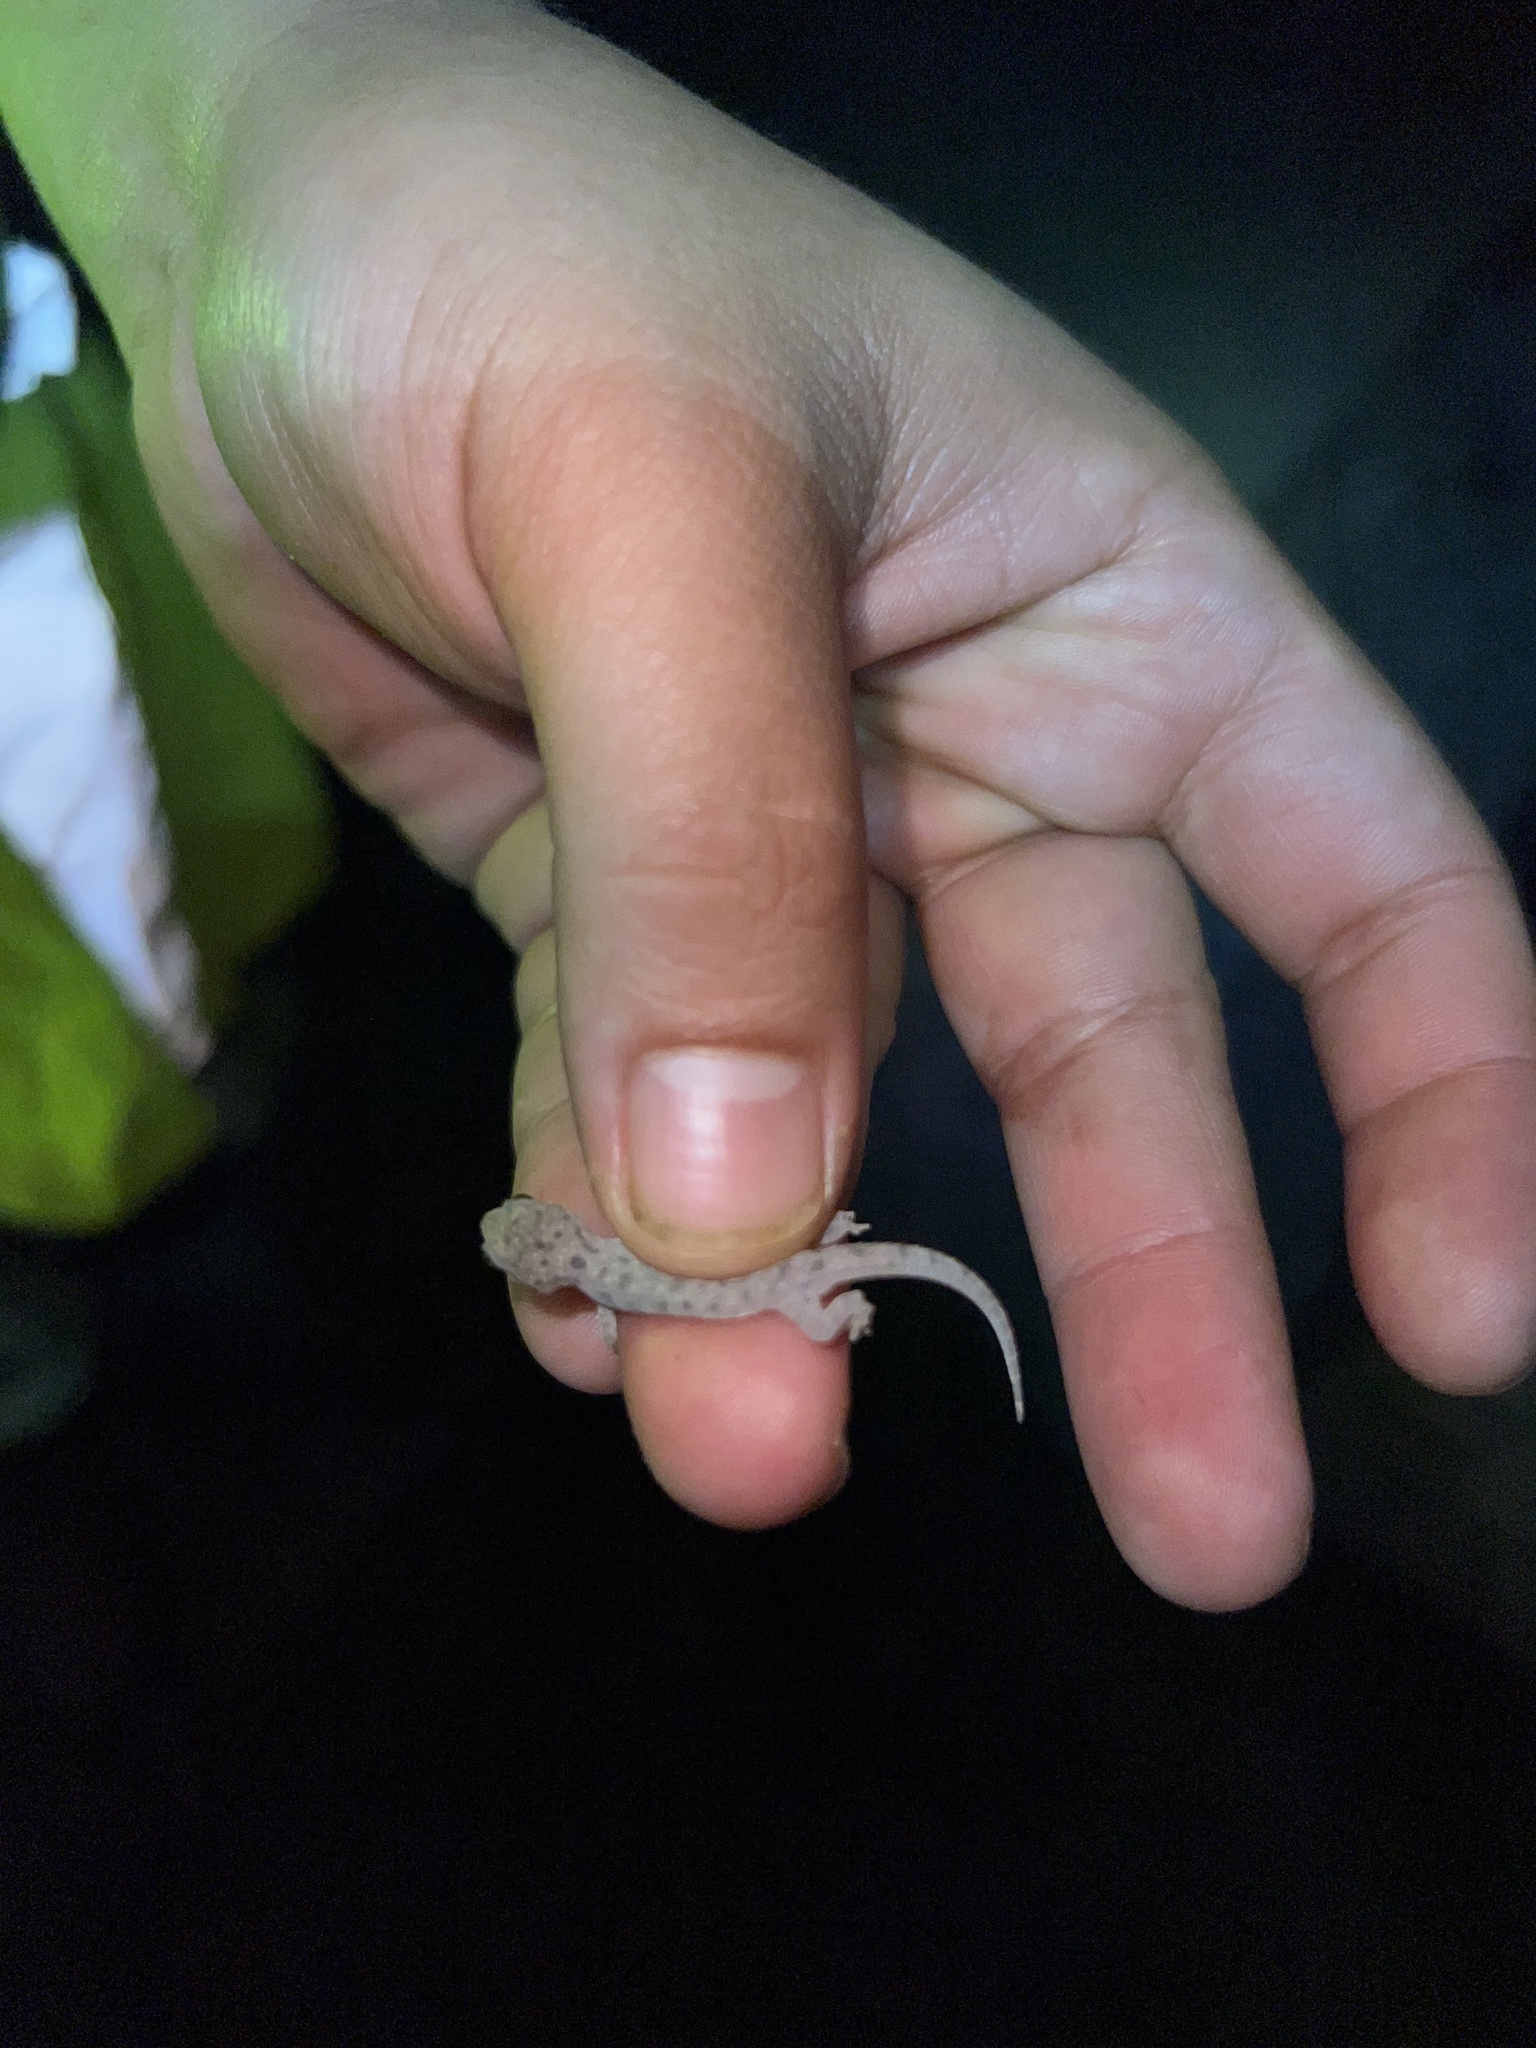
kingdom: Animalia
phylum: Chordata
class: Squamata
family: Gekkonidae
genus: Hemidactylus
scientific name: Hemidactylus parvimaculatus
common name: Spotted house gecko
